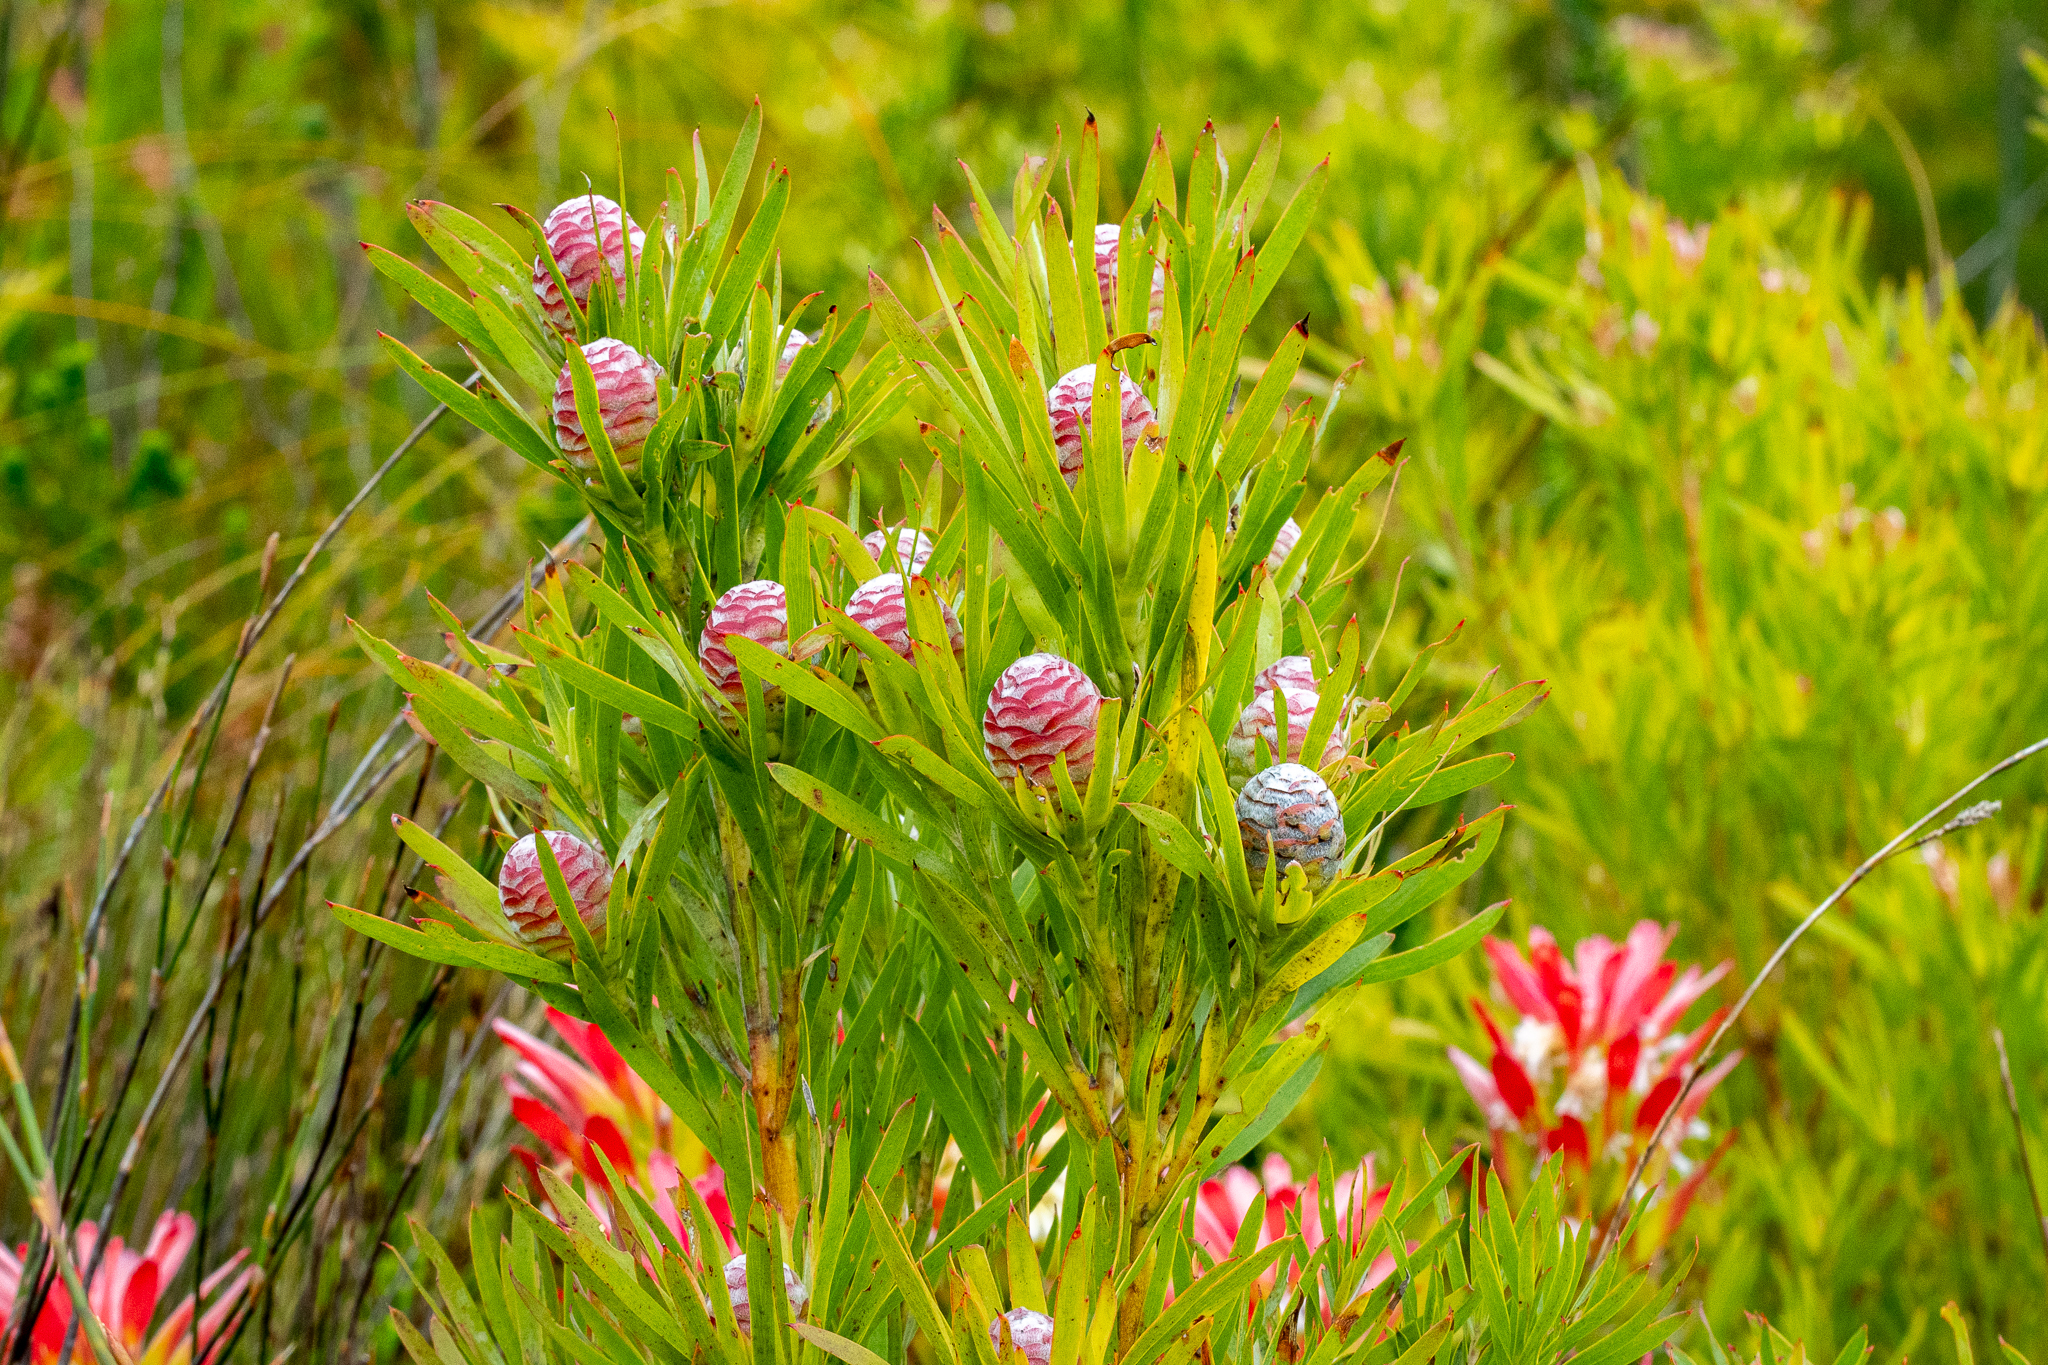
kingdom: Plantae
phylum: Tracheophyta
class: Magnoliopsida
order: Proteales
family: Proteaceae
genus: Leucadendron
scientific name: Leucadendron xanthoconus
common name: Sickle-leaf conebush
